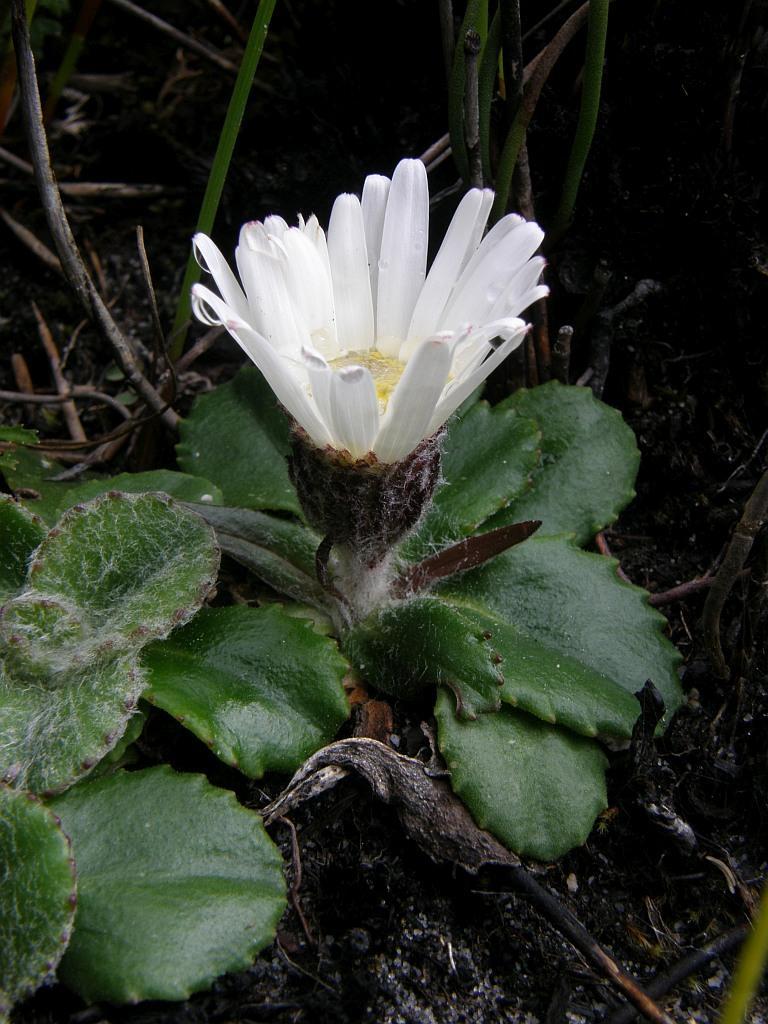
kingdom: Plantae
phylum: Tracheophyta
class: Magnoliopsida
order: Asterales
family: Asteraceae
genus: Zyrphelis
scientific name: Zyrphelis crenata
